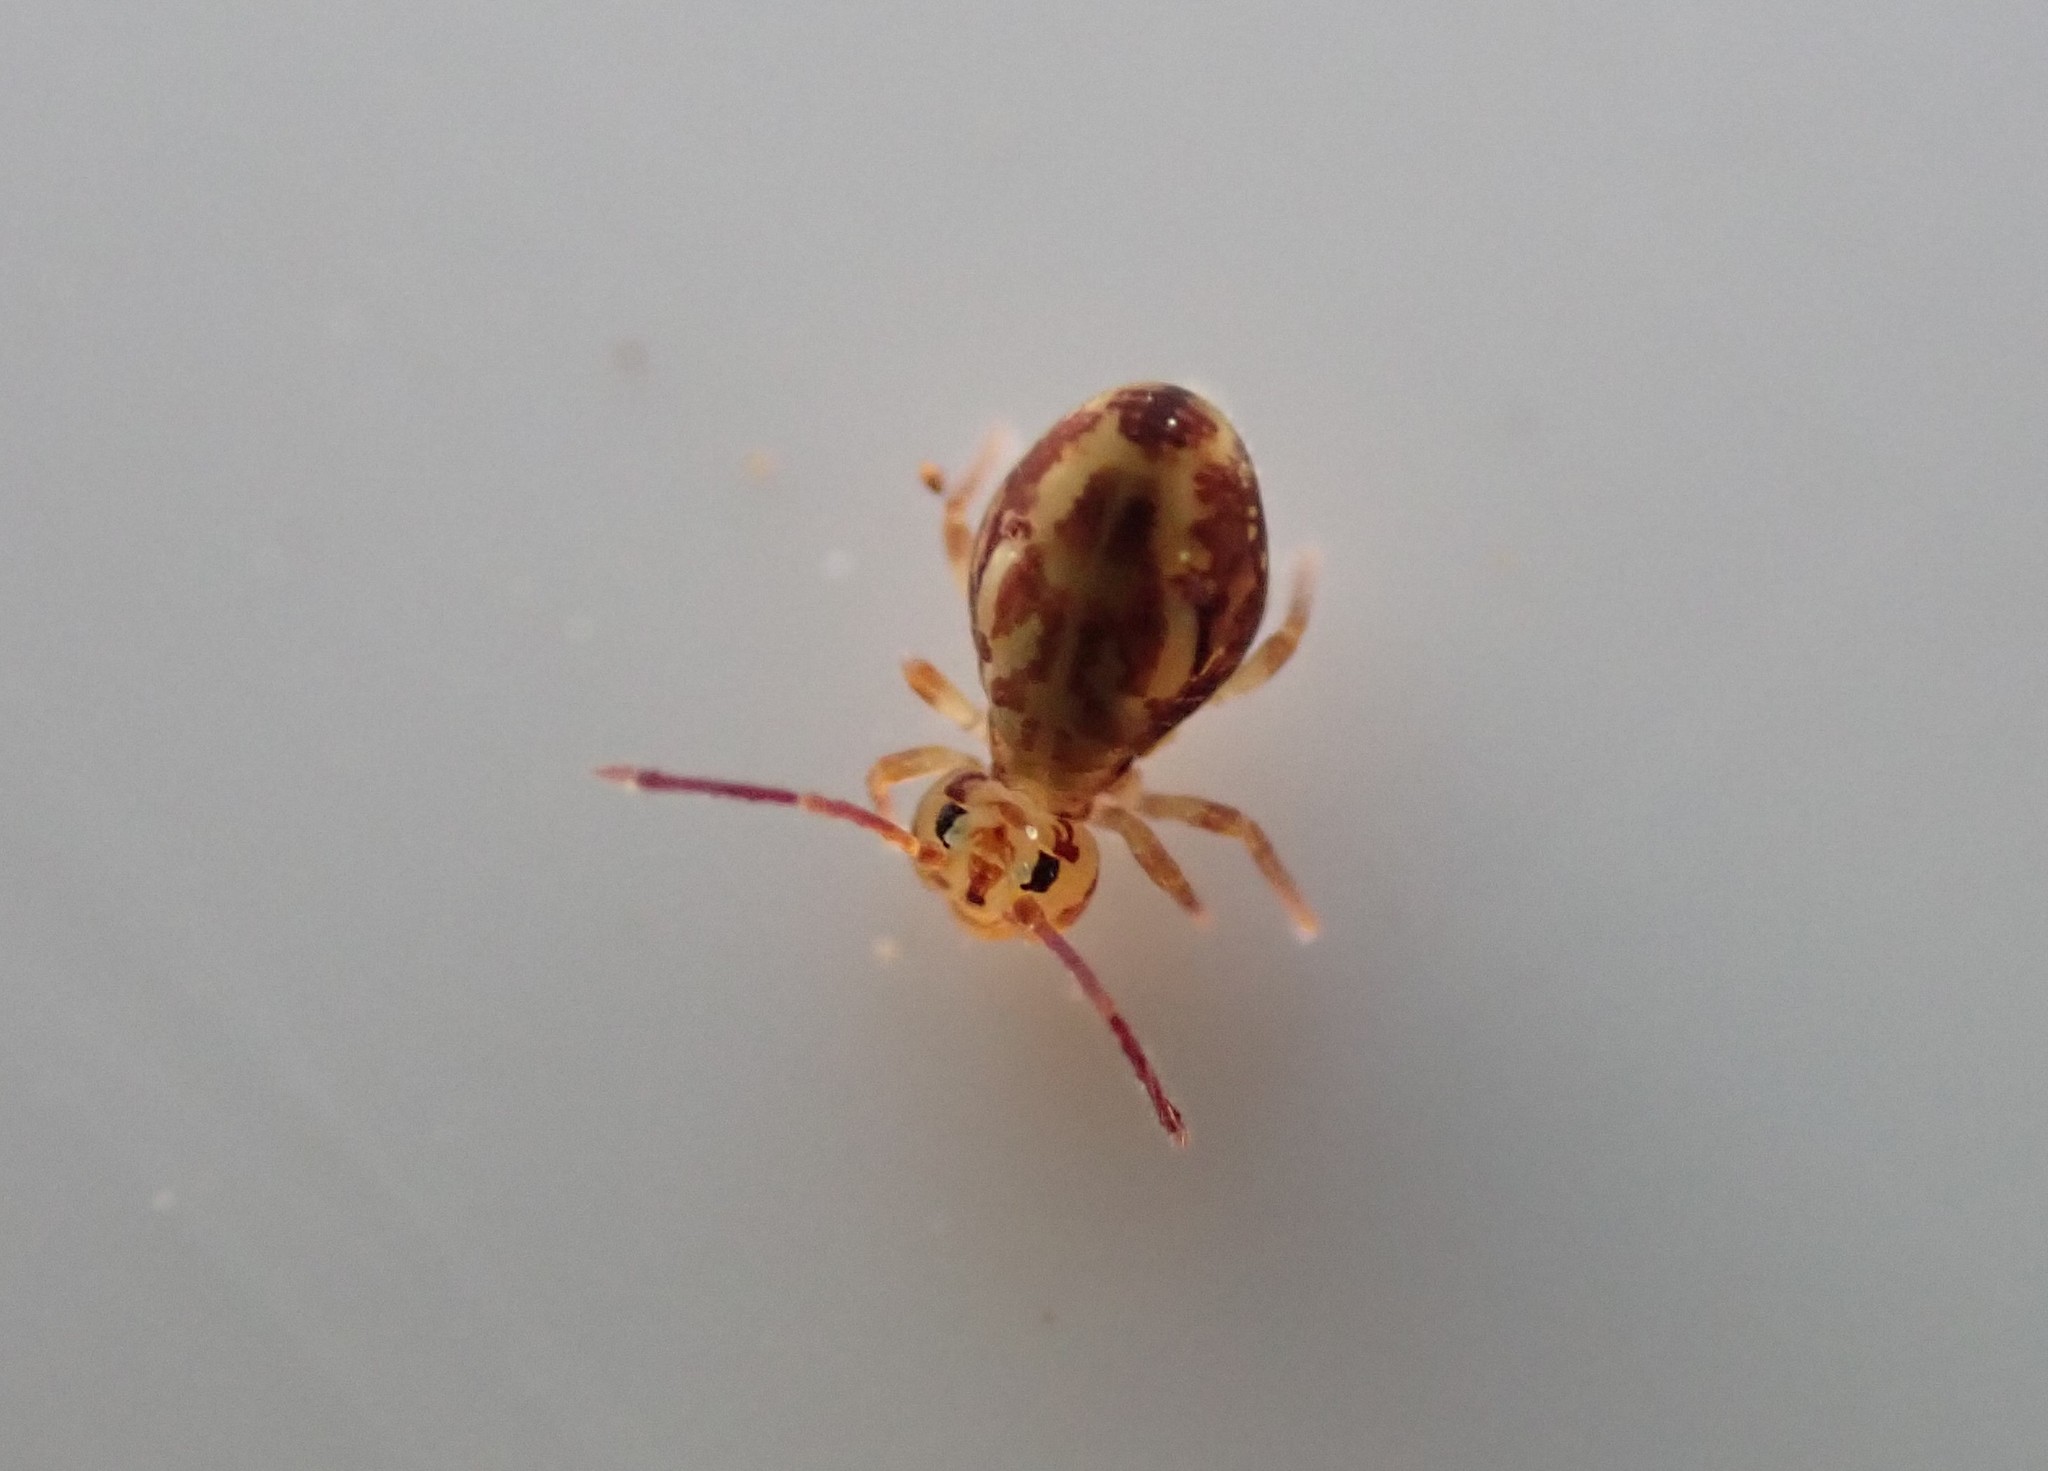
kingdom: Animalia
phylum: Arthropoda
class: Collembola
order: Symphypleona
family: Dicyrtomidae
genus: Dicyrtomina
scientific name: Dicyrtomina saundersi
